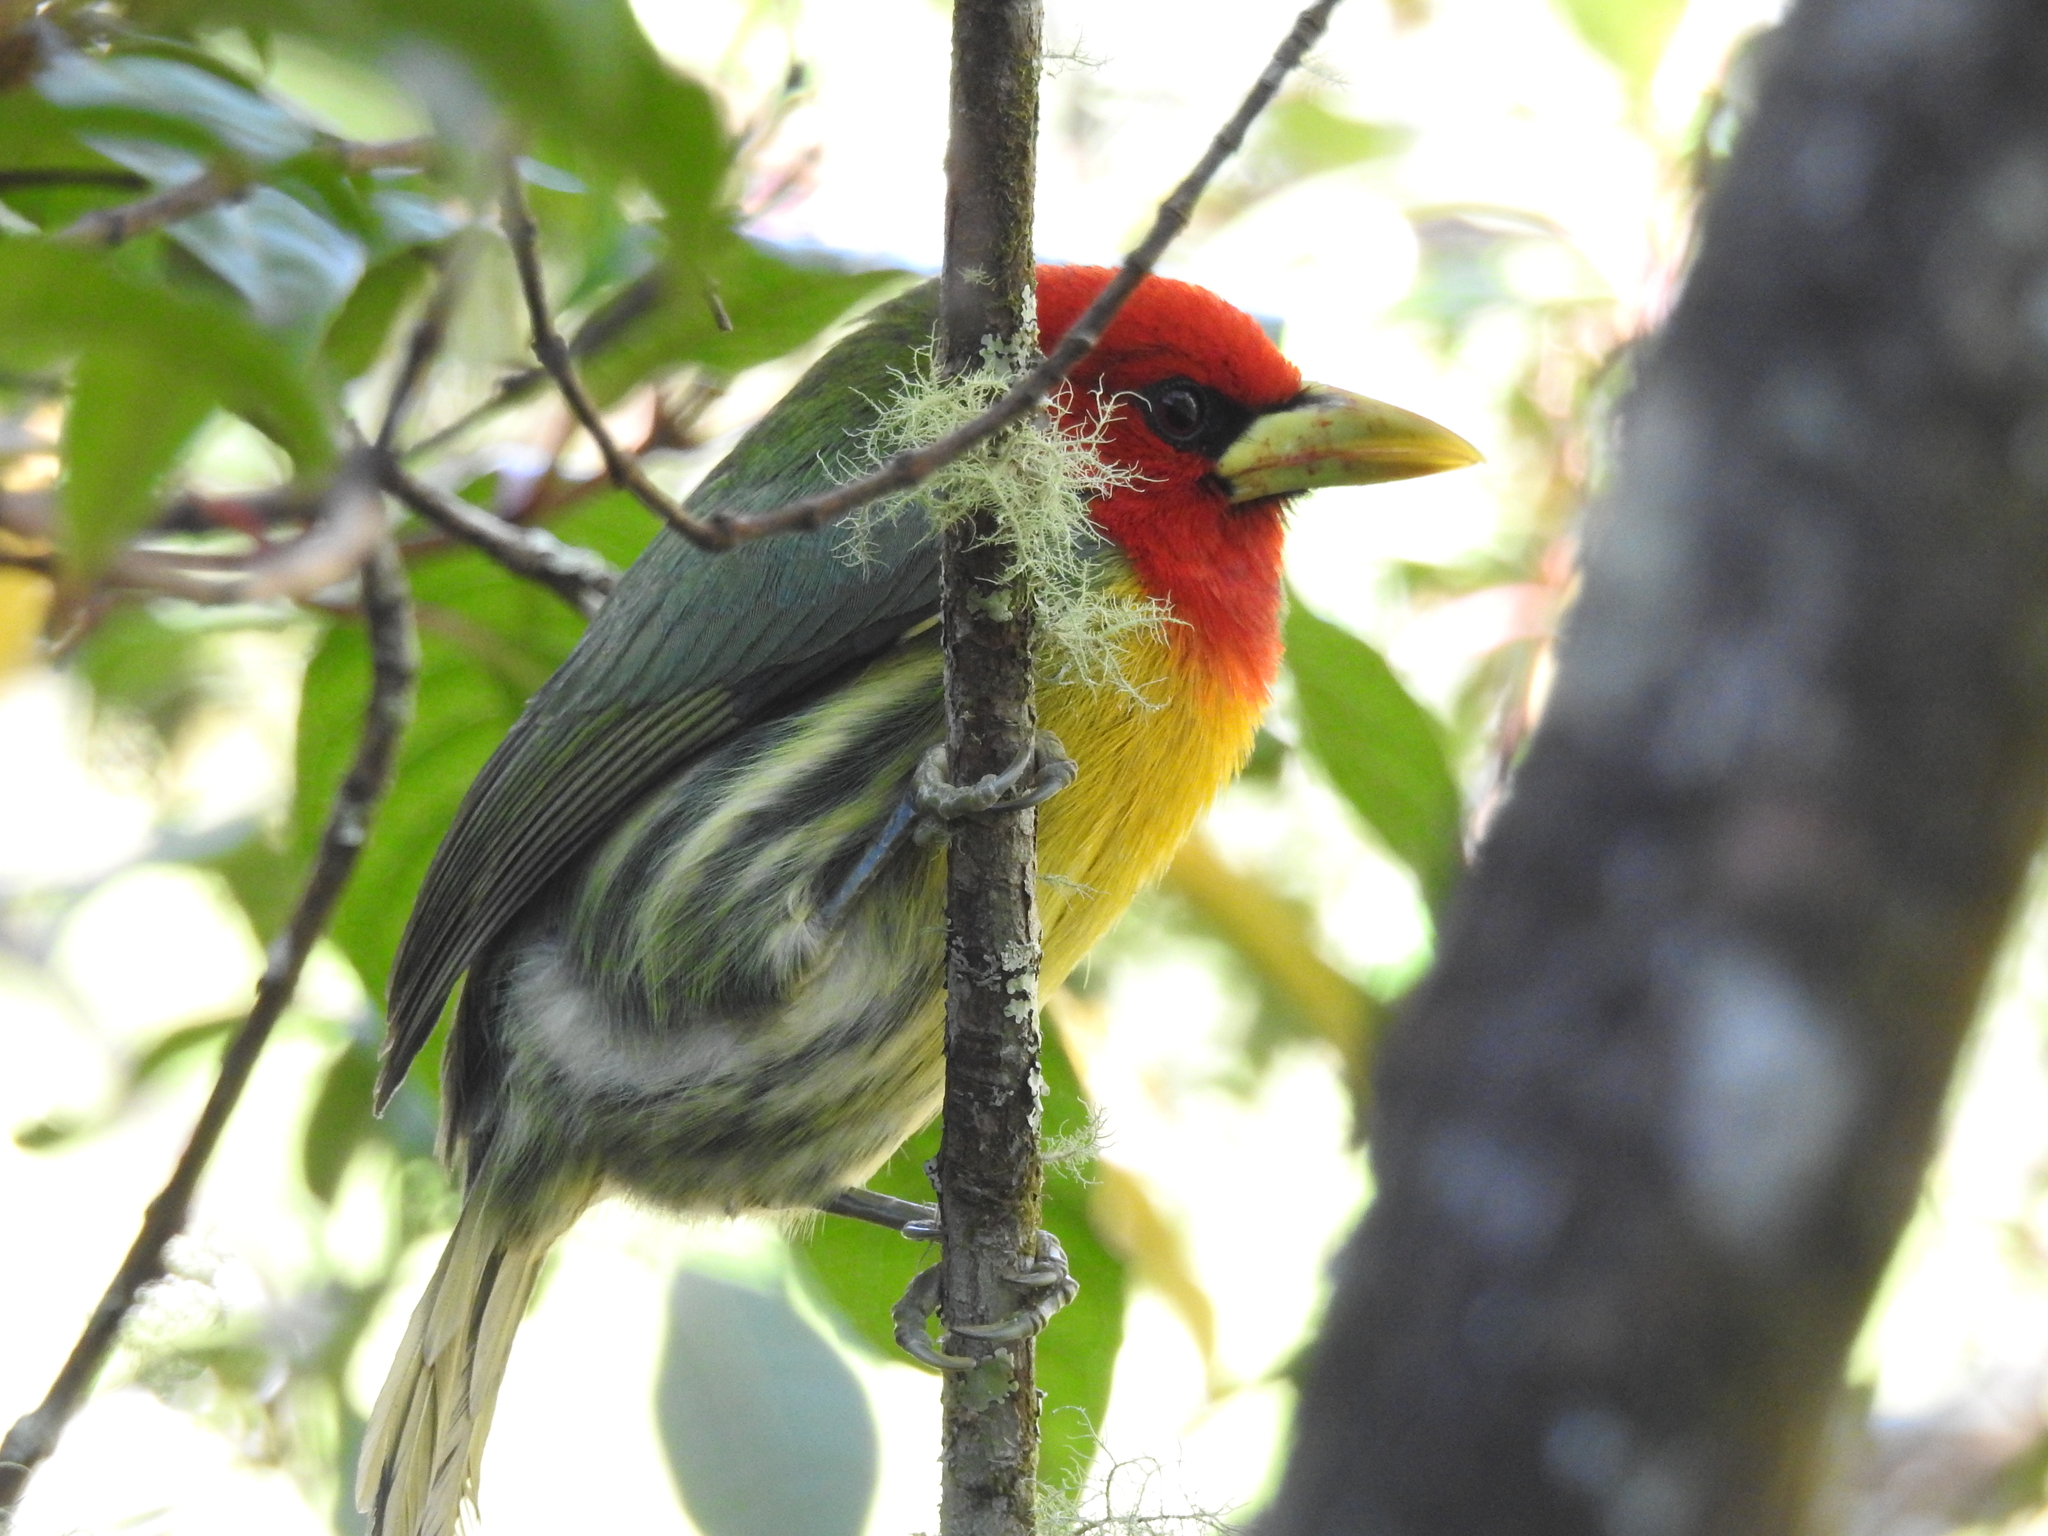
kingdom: Animalia
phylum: Chordata
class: Aves
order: Piciformes
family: Capitonidae
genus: Eubucco
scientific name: Eubucco bourcierii
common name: Red-headed barbet
